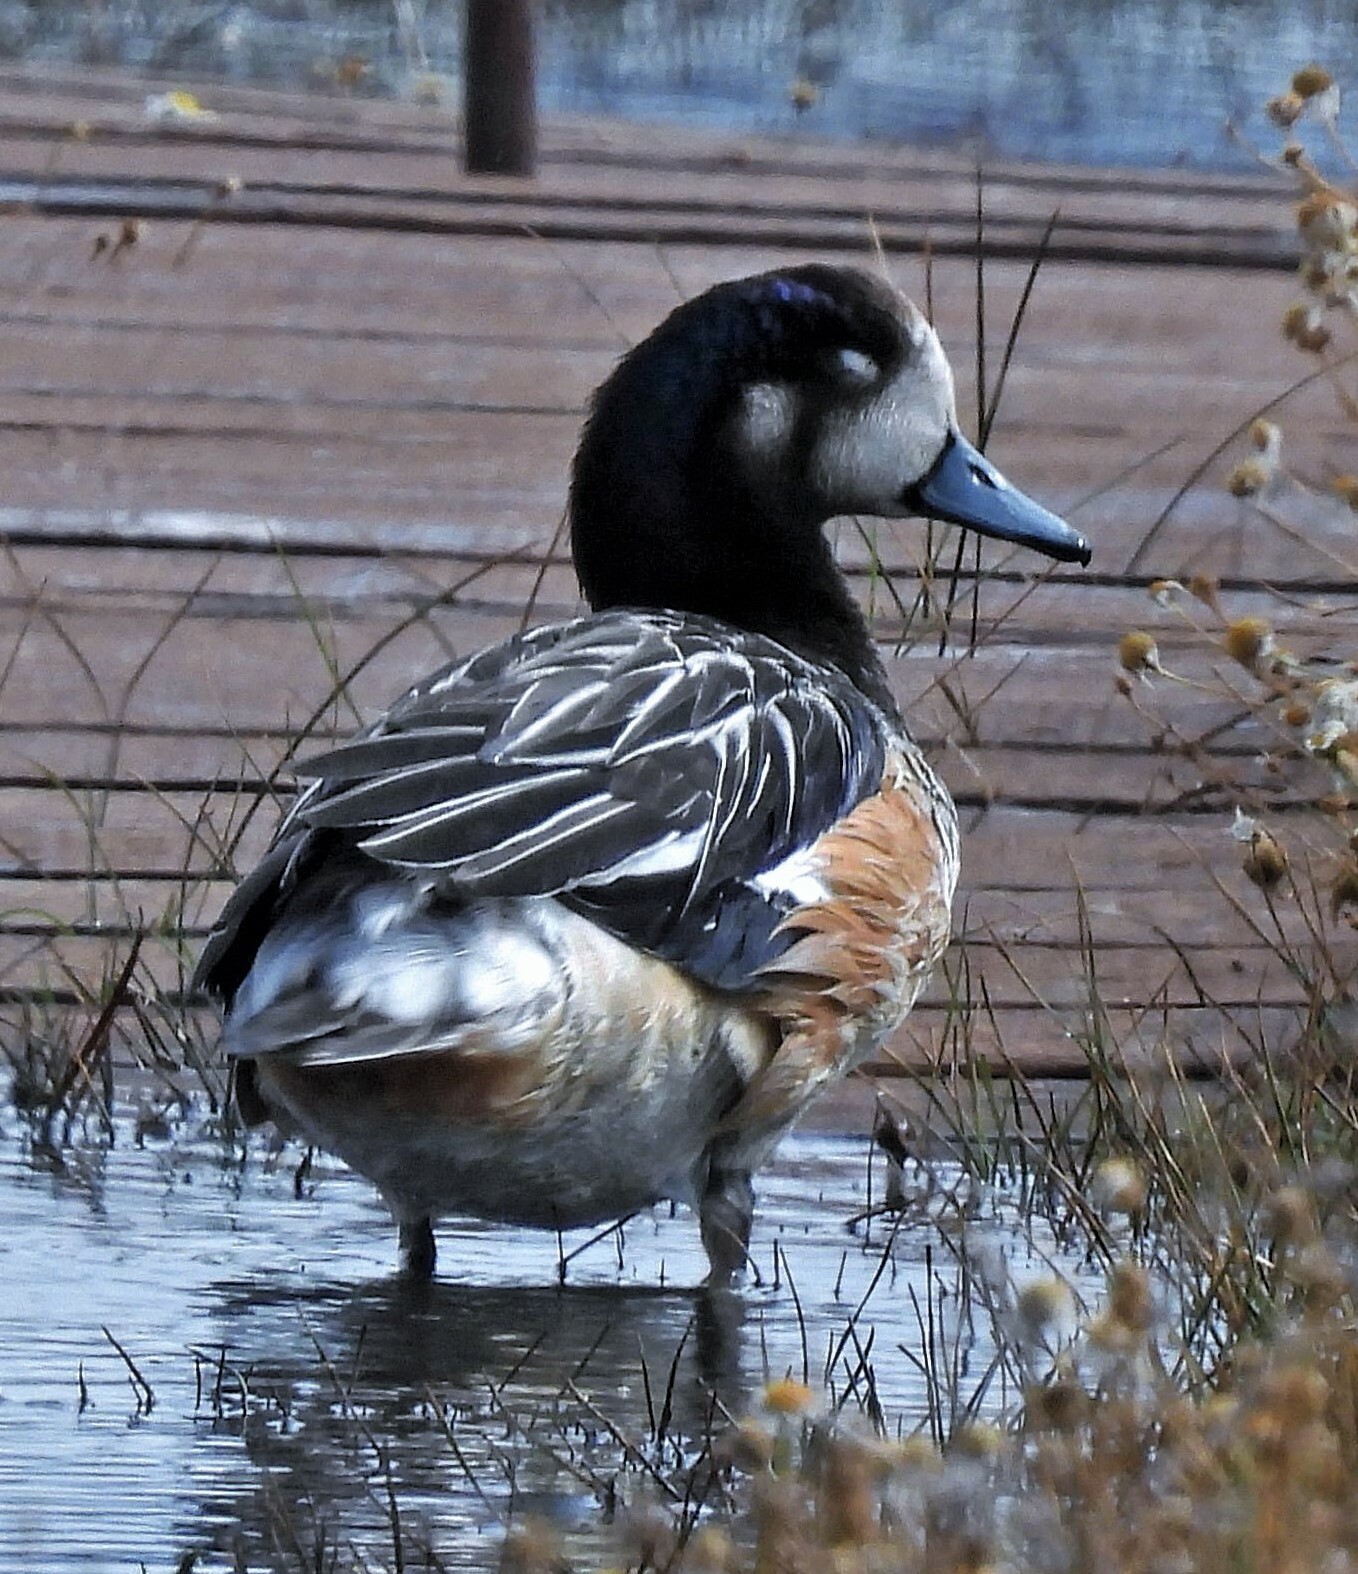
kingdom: Animalia
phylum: Chordata
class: Aves
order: Anseriformes
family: Anatidae
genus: Mareca
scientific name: Mareca sibilatrix
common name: Chiloe wigeon
